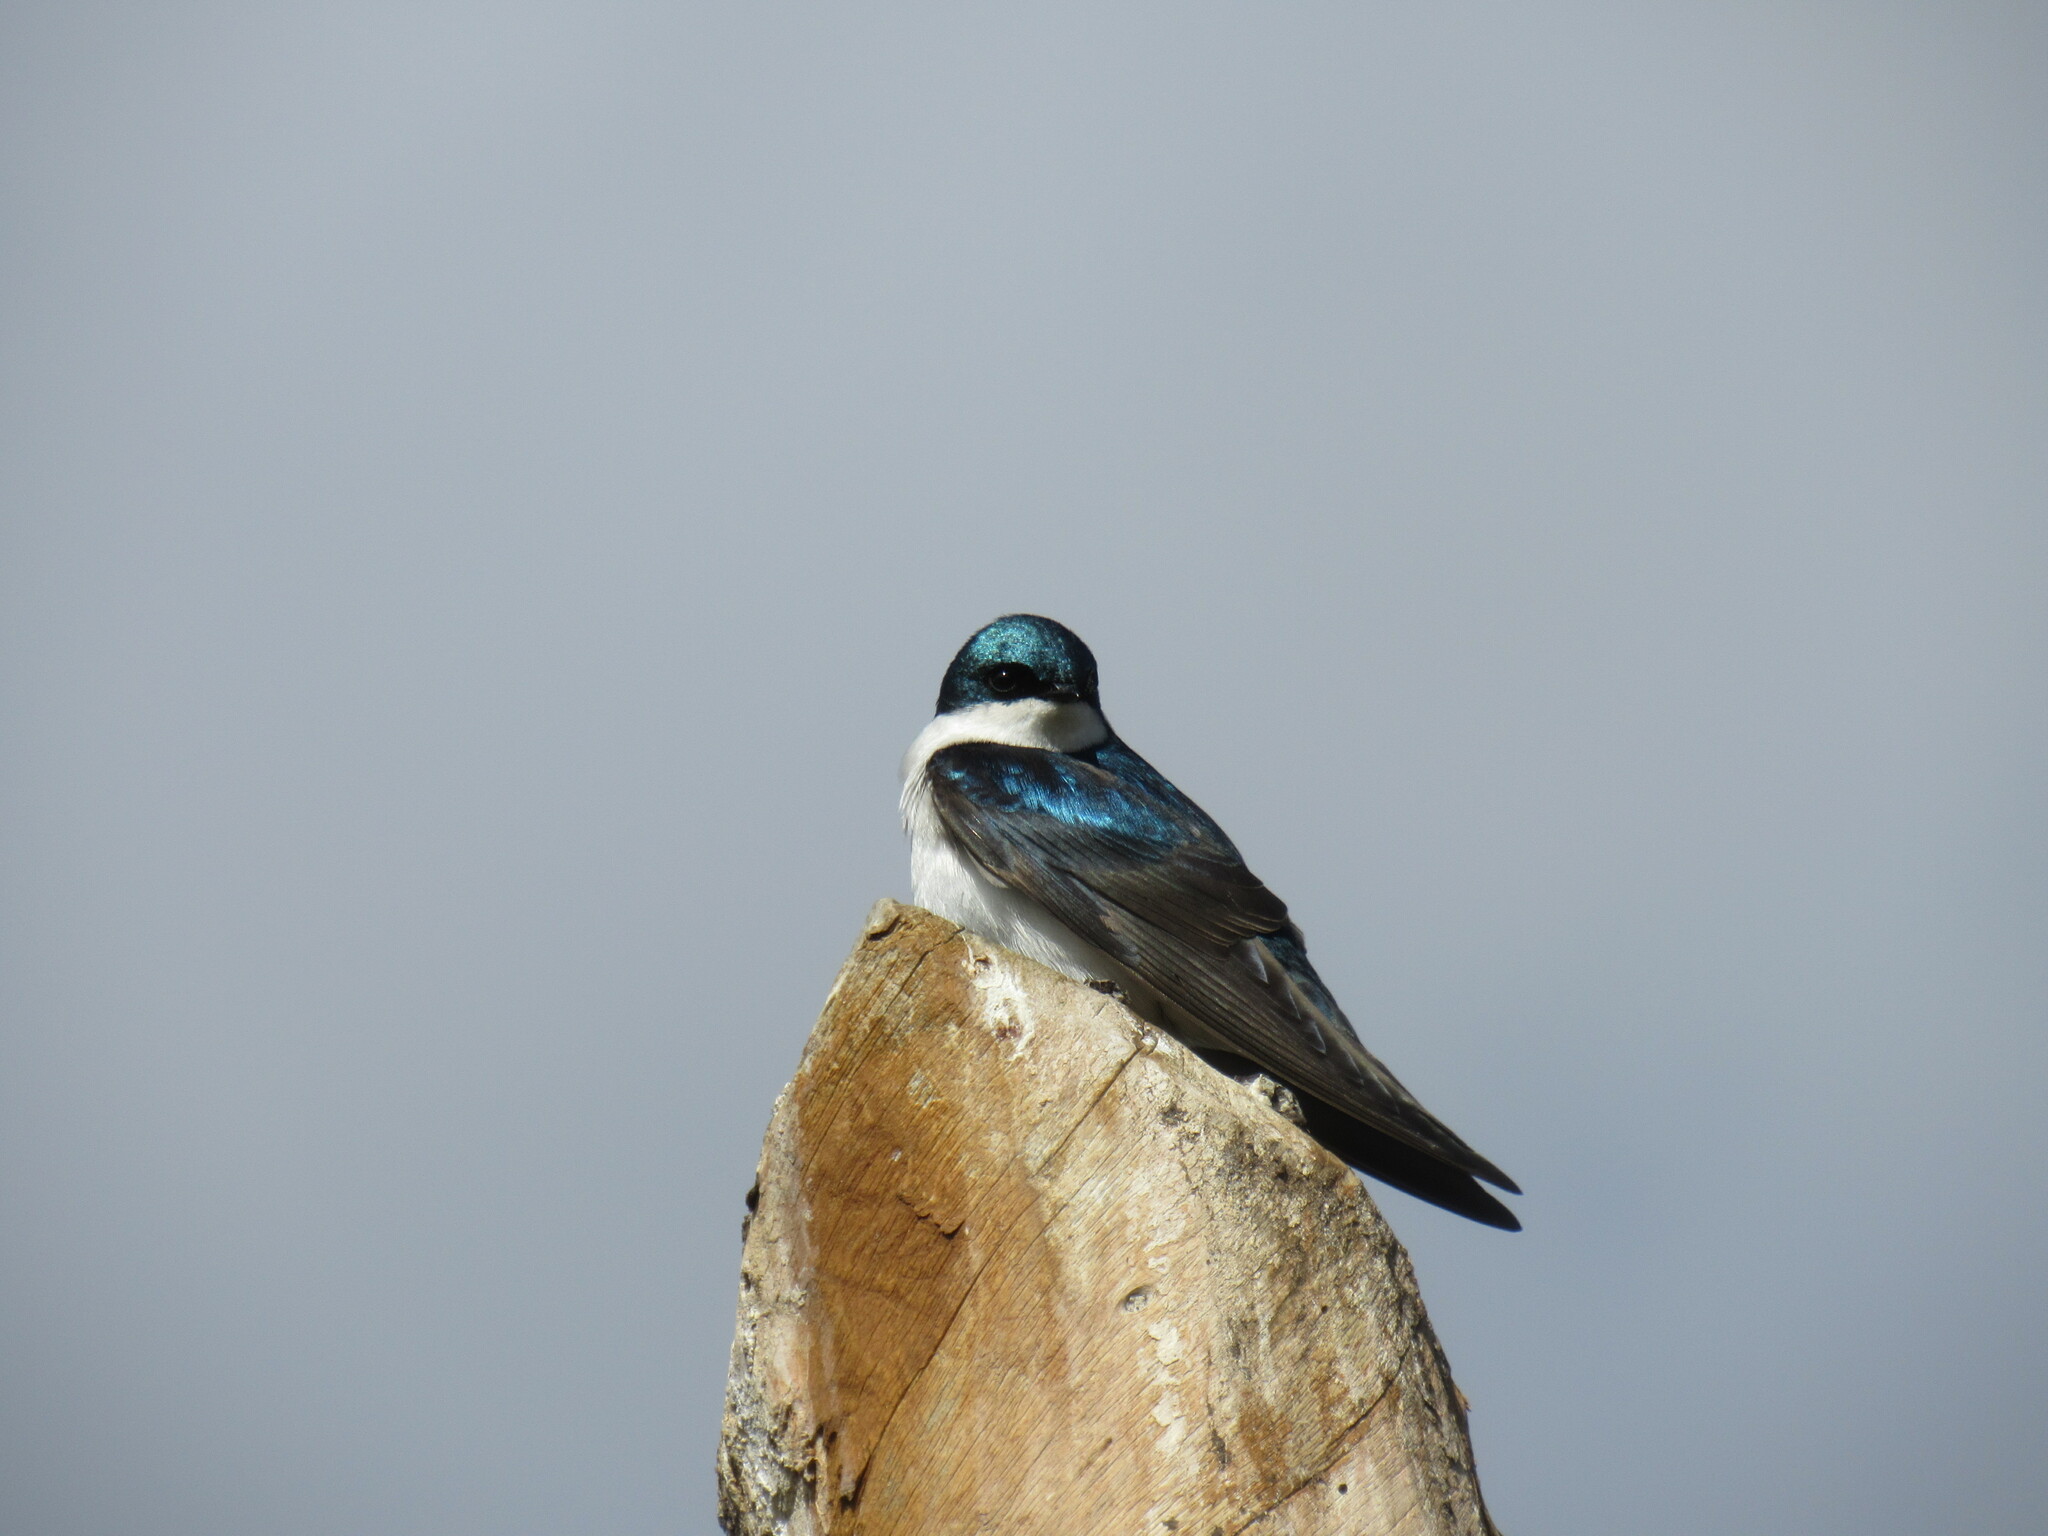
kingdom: Animalia
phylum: Chordata
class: Aves
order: Passeriformes
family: Hirundinidae
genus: Tachycineta
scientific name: Tachycineta bicolor
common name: Tree swallow
